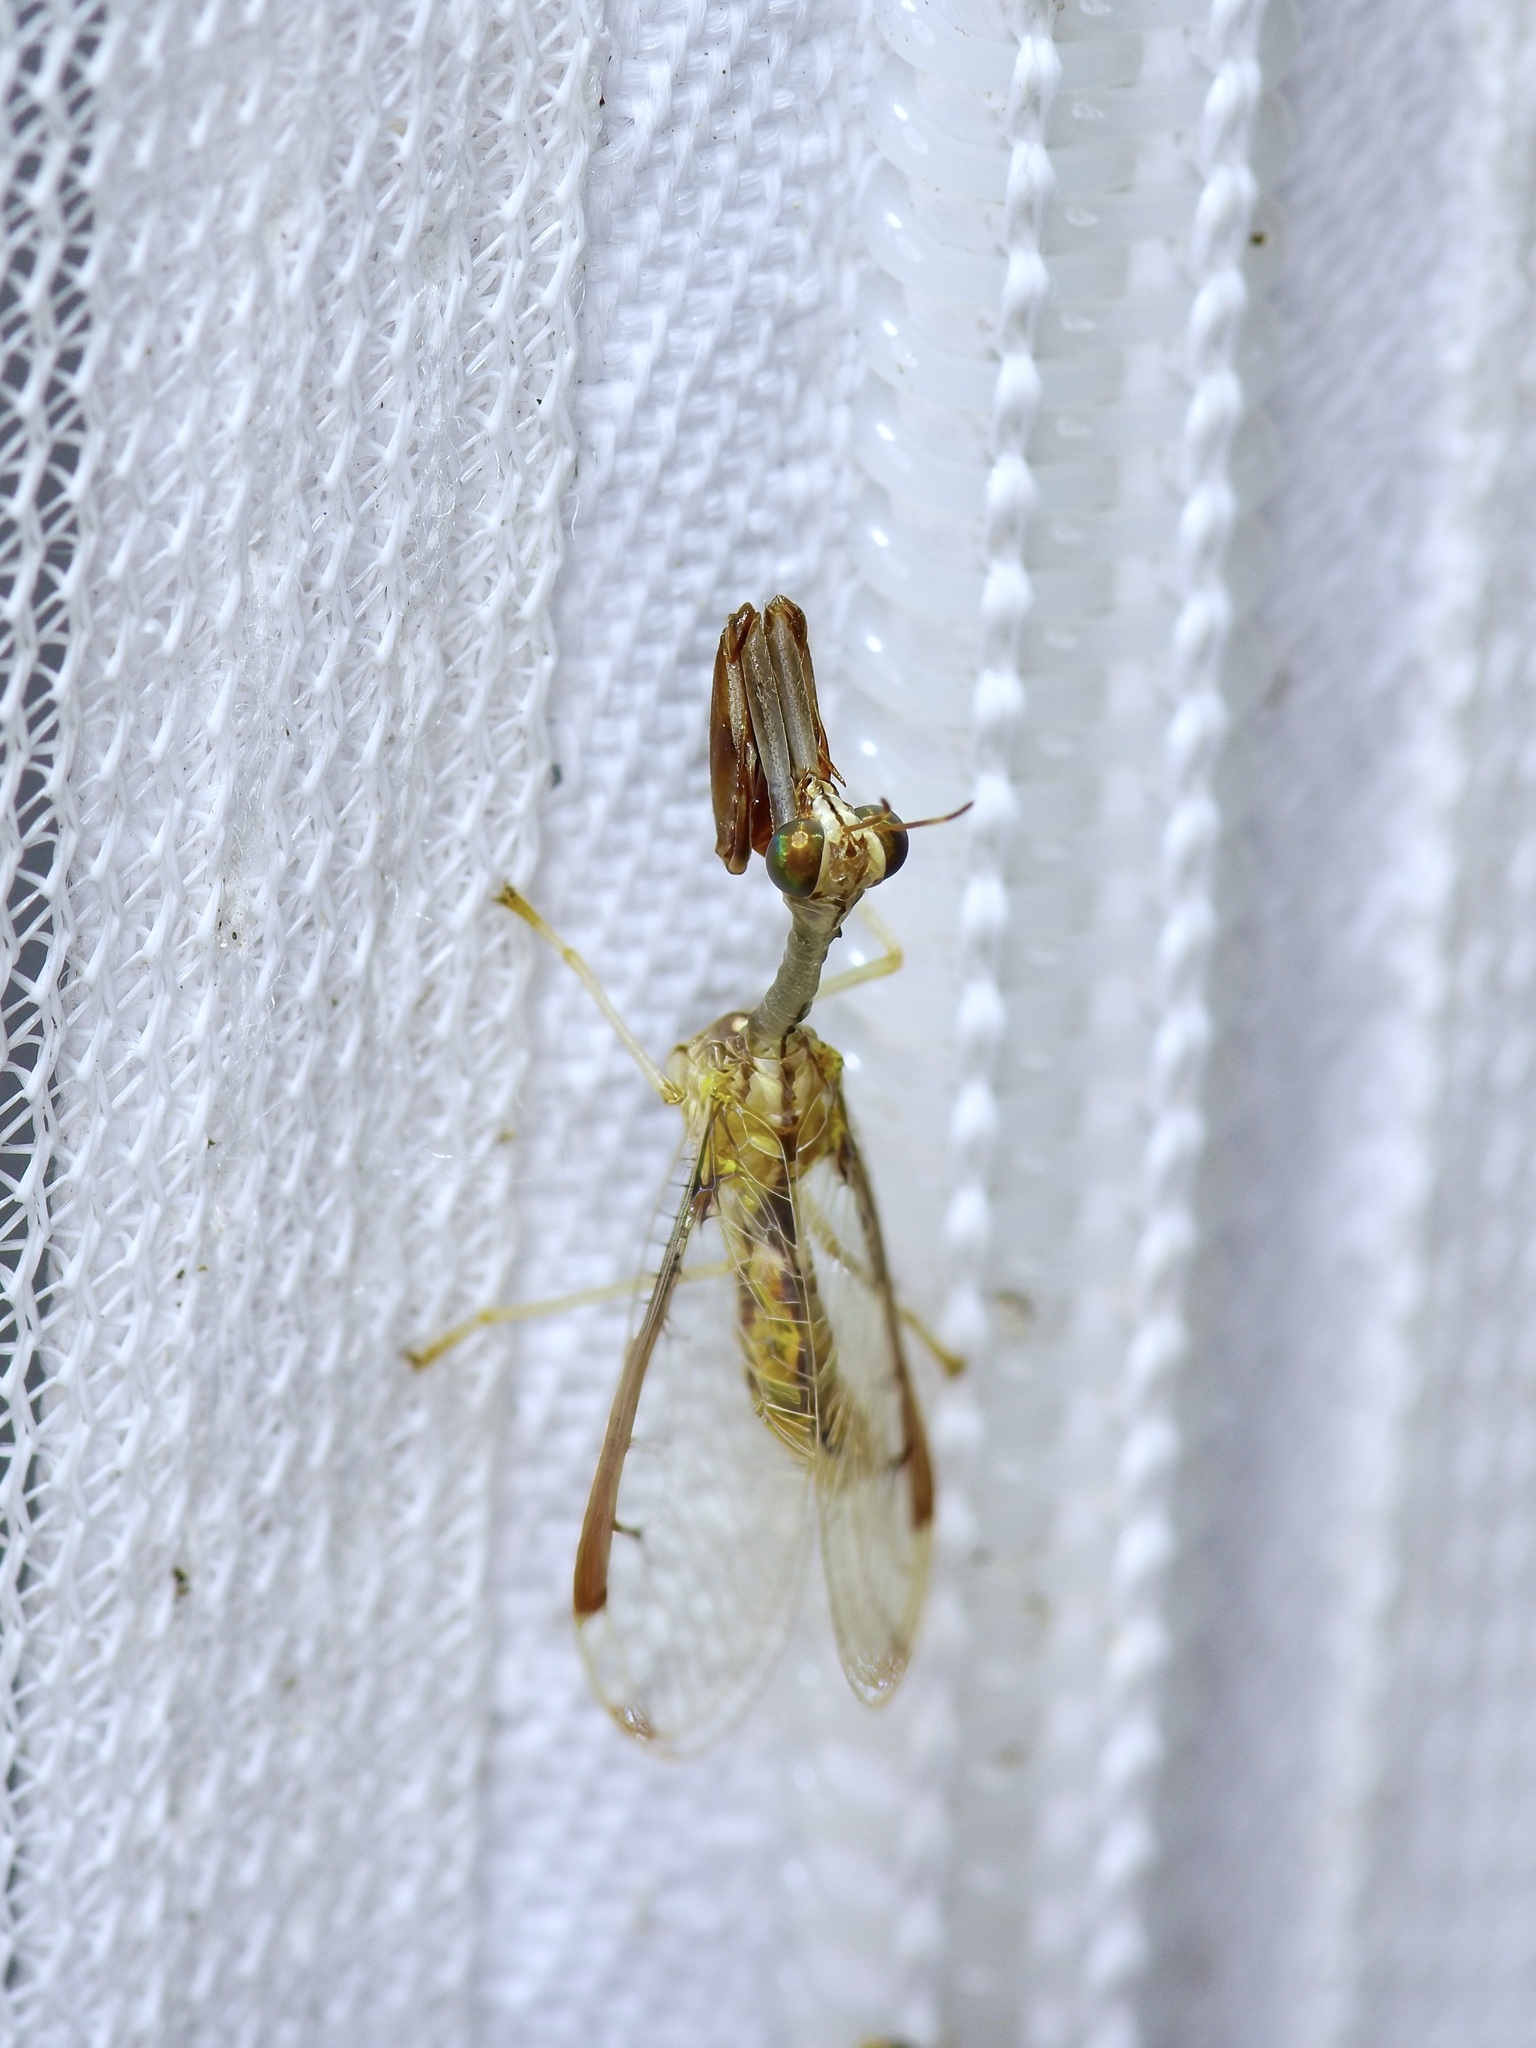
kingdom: Animalia
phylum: Arthropoda
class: Insecta
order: Neuroptera
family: Mantispidae
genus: Dicromantispa
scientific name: Dicromantispa interrupta
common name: Four-spotted mantidfly
